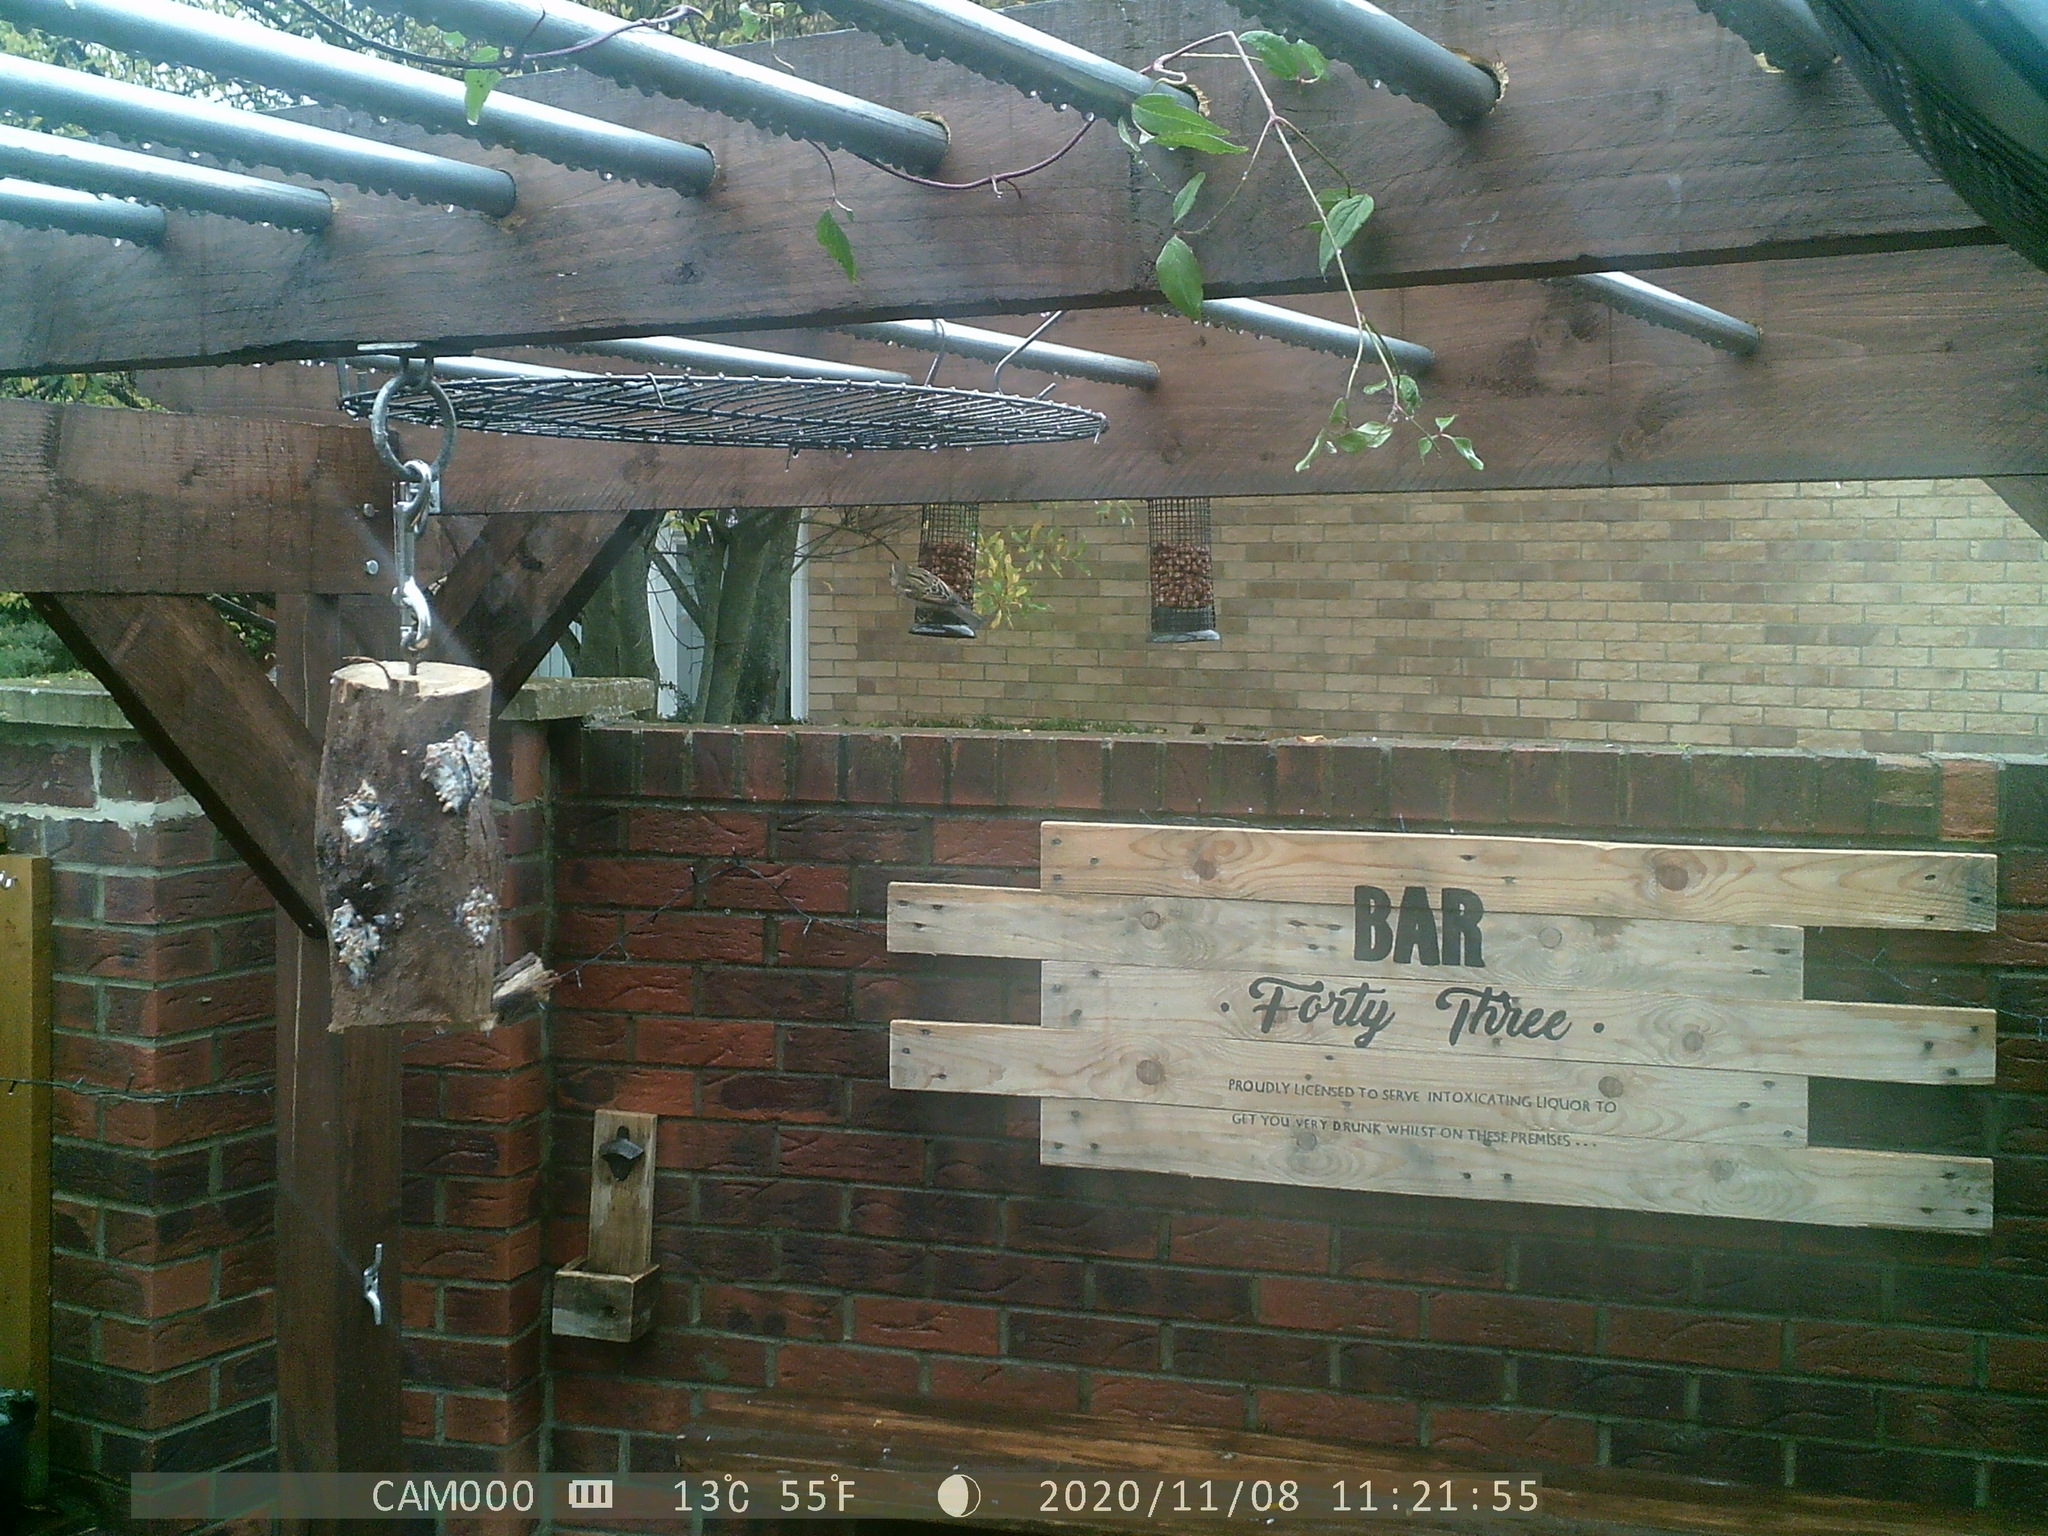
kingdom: Animalia
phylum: Chordata
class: Aves
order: Passeriformes
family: Passeridae
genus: Passer
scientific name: Passer domesticus
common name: House sparrow
